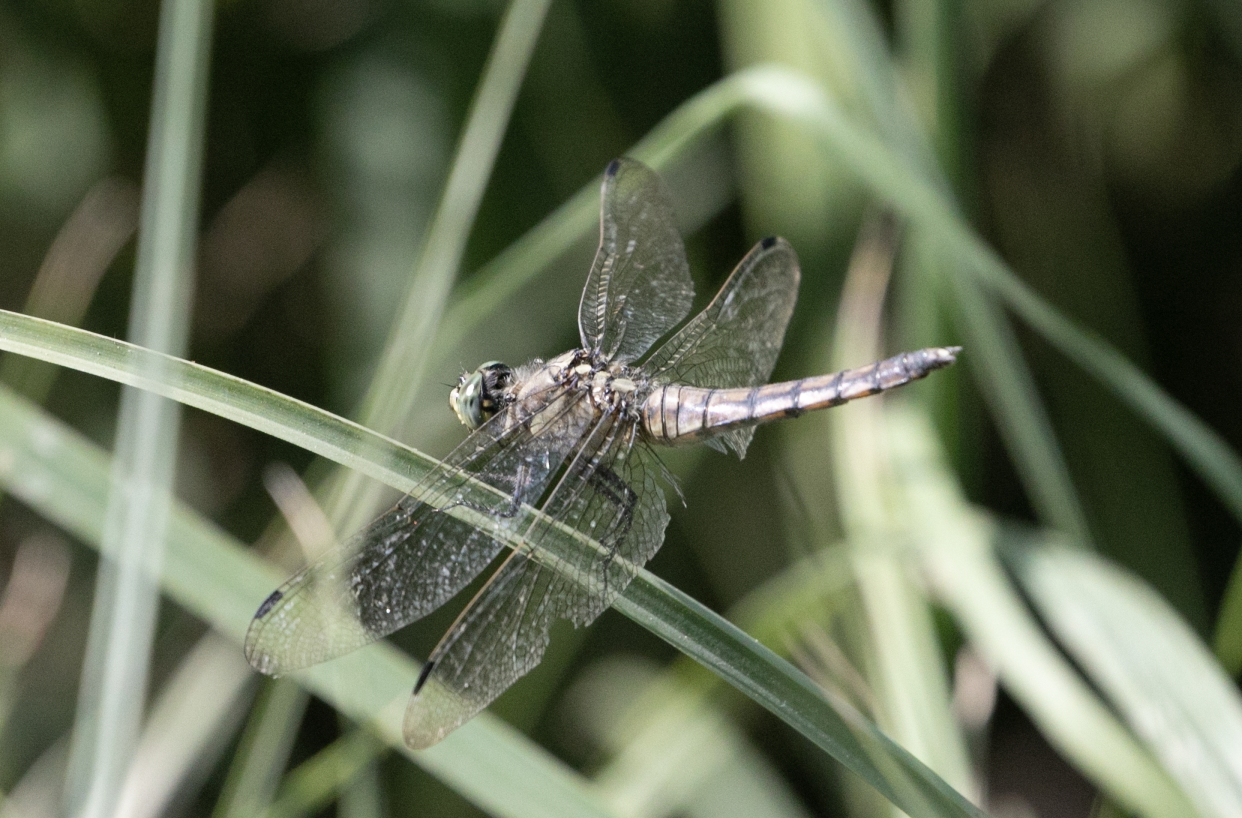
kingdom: Animalia
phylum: Arthropoda
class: Insecta
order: Odonata
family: Libellulidae
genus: Orthetrum
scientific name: Orthetrum cancellatum
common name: Black-tailed skimmer
